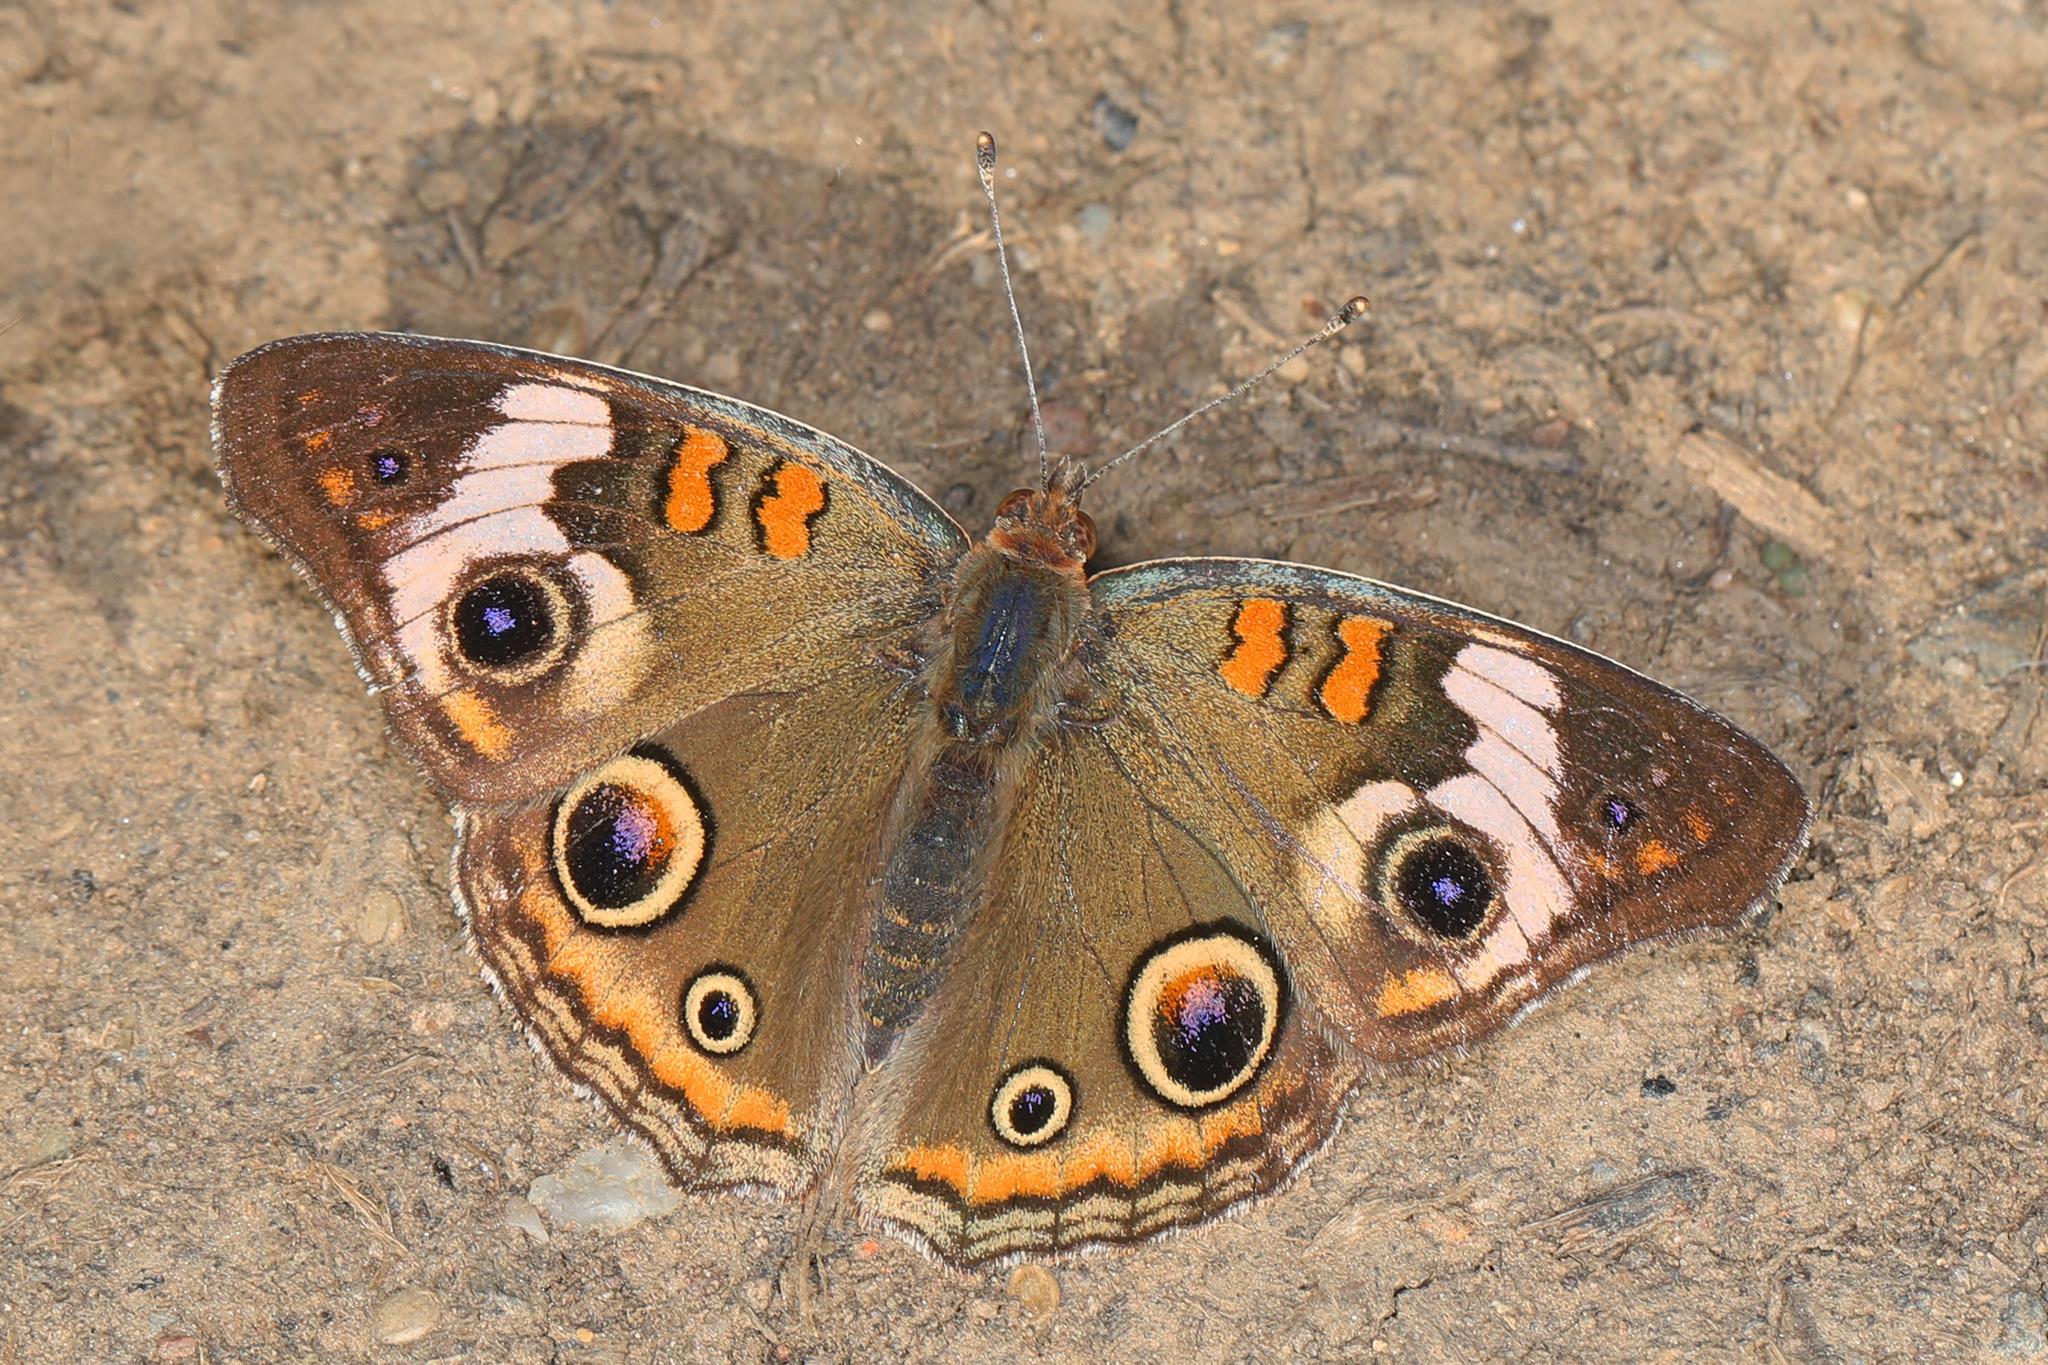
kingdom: Animalia
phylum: Arthropoda
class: Insecta
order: Lepidoptera
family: Nymphalidae
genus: Junonia
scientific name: Junonia coenia
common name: Common buckeye
